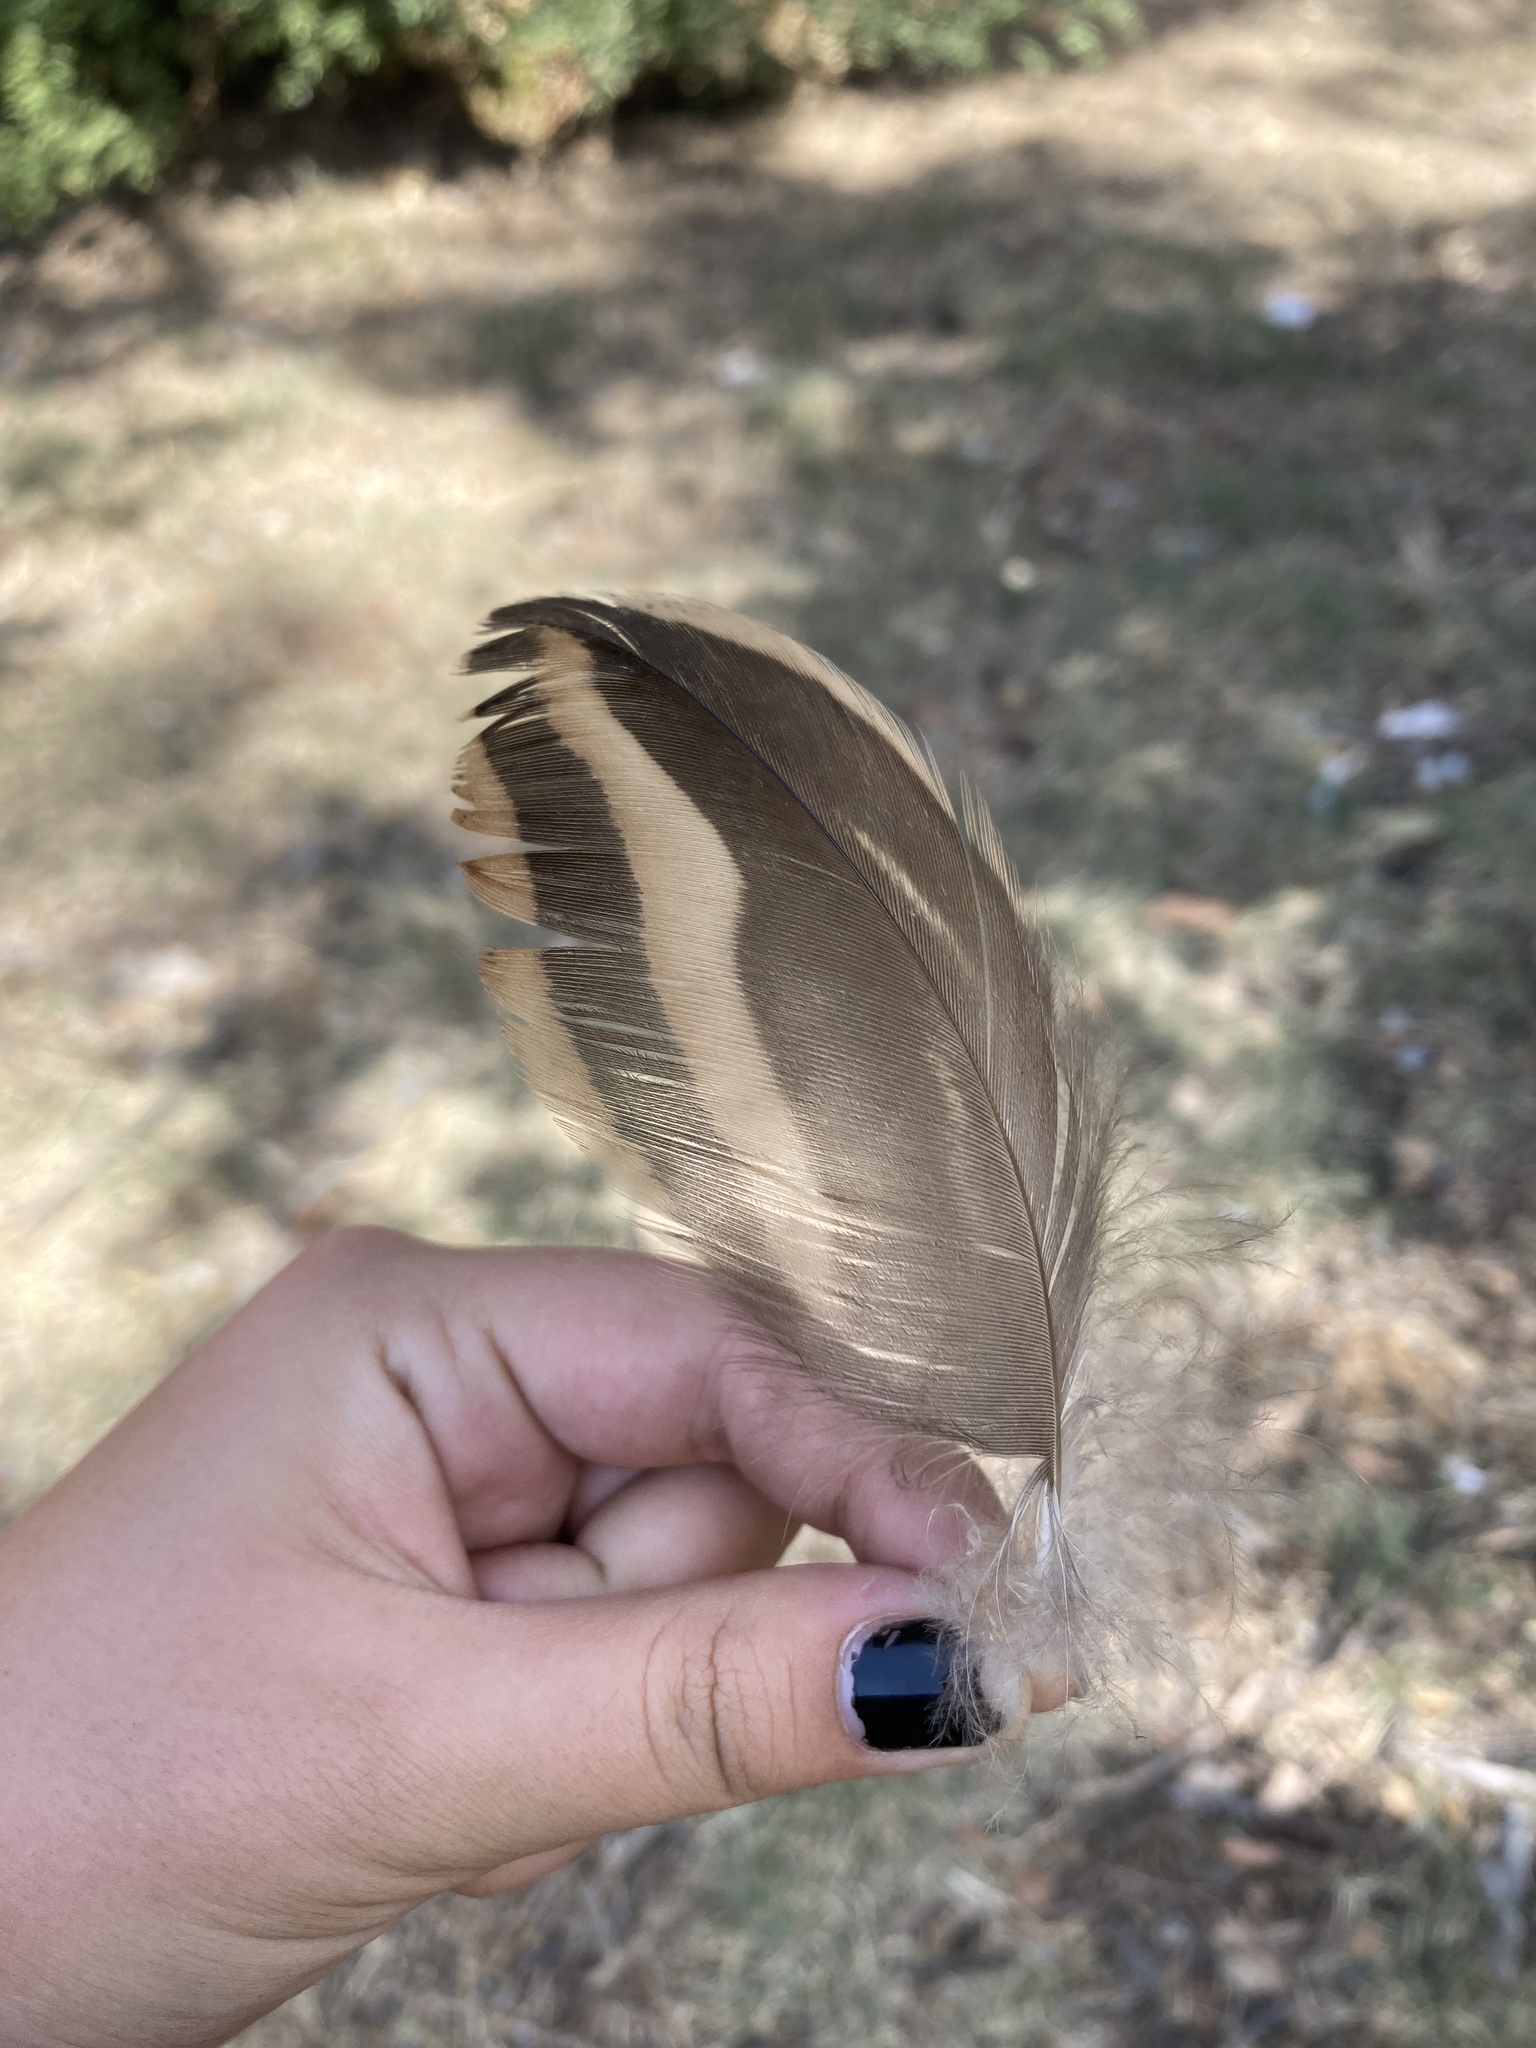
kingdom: Animalia
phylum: Chordata
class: Aves
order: Anseriformes
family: Anatidae
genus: Anas
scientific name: Anas platyrhynchos
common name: Mallard
